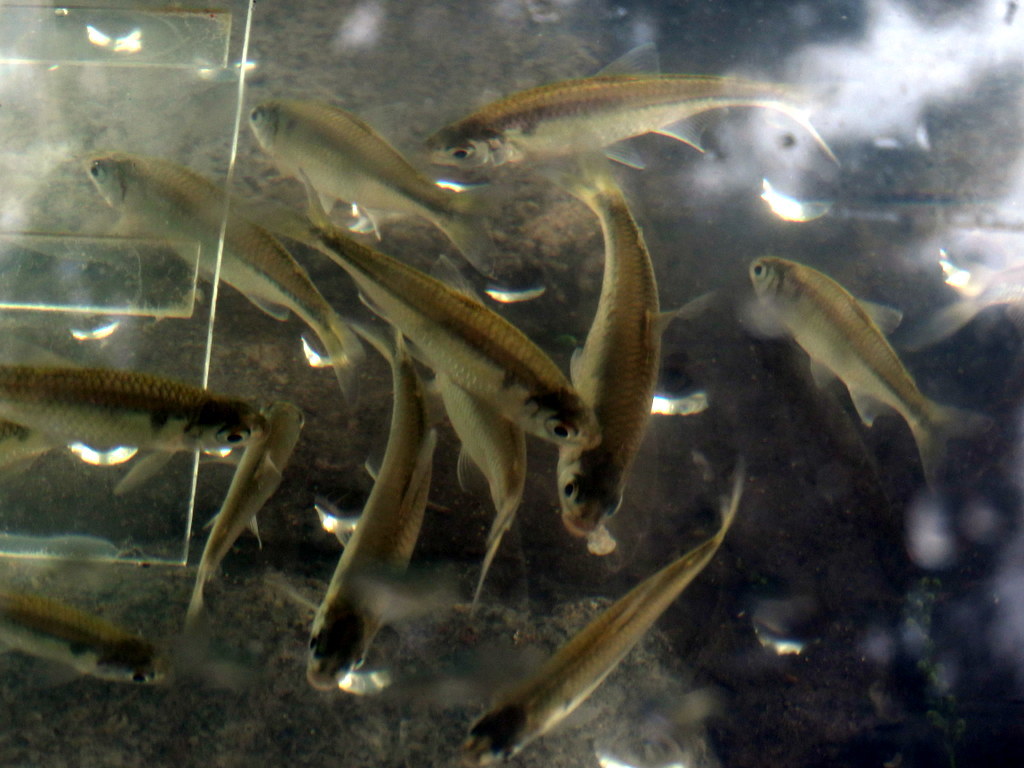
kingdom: Animalia
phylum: Chordata
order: Characiformes
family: Characidae
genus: Bryconamericus
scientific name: Bryconamericus iheringii
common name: Tetra
